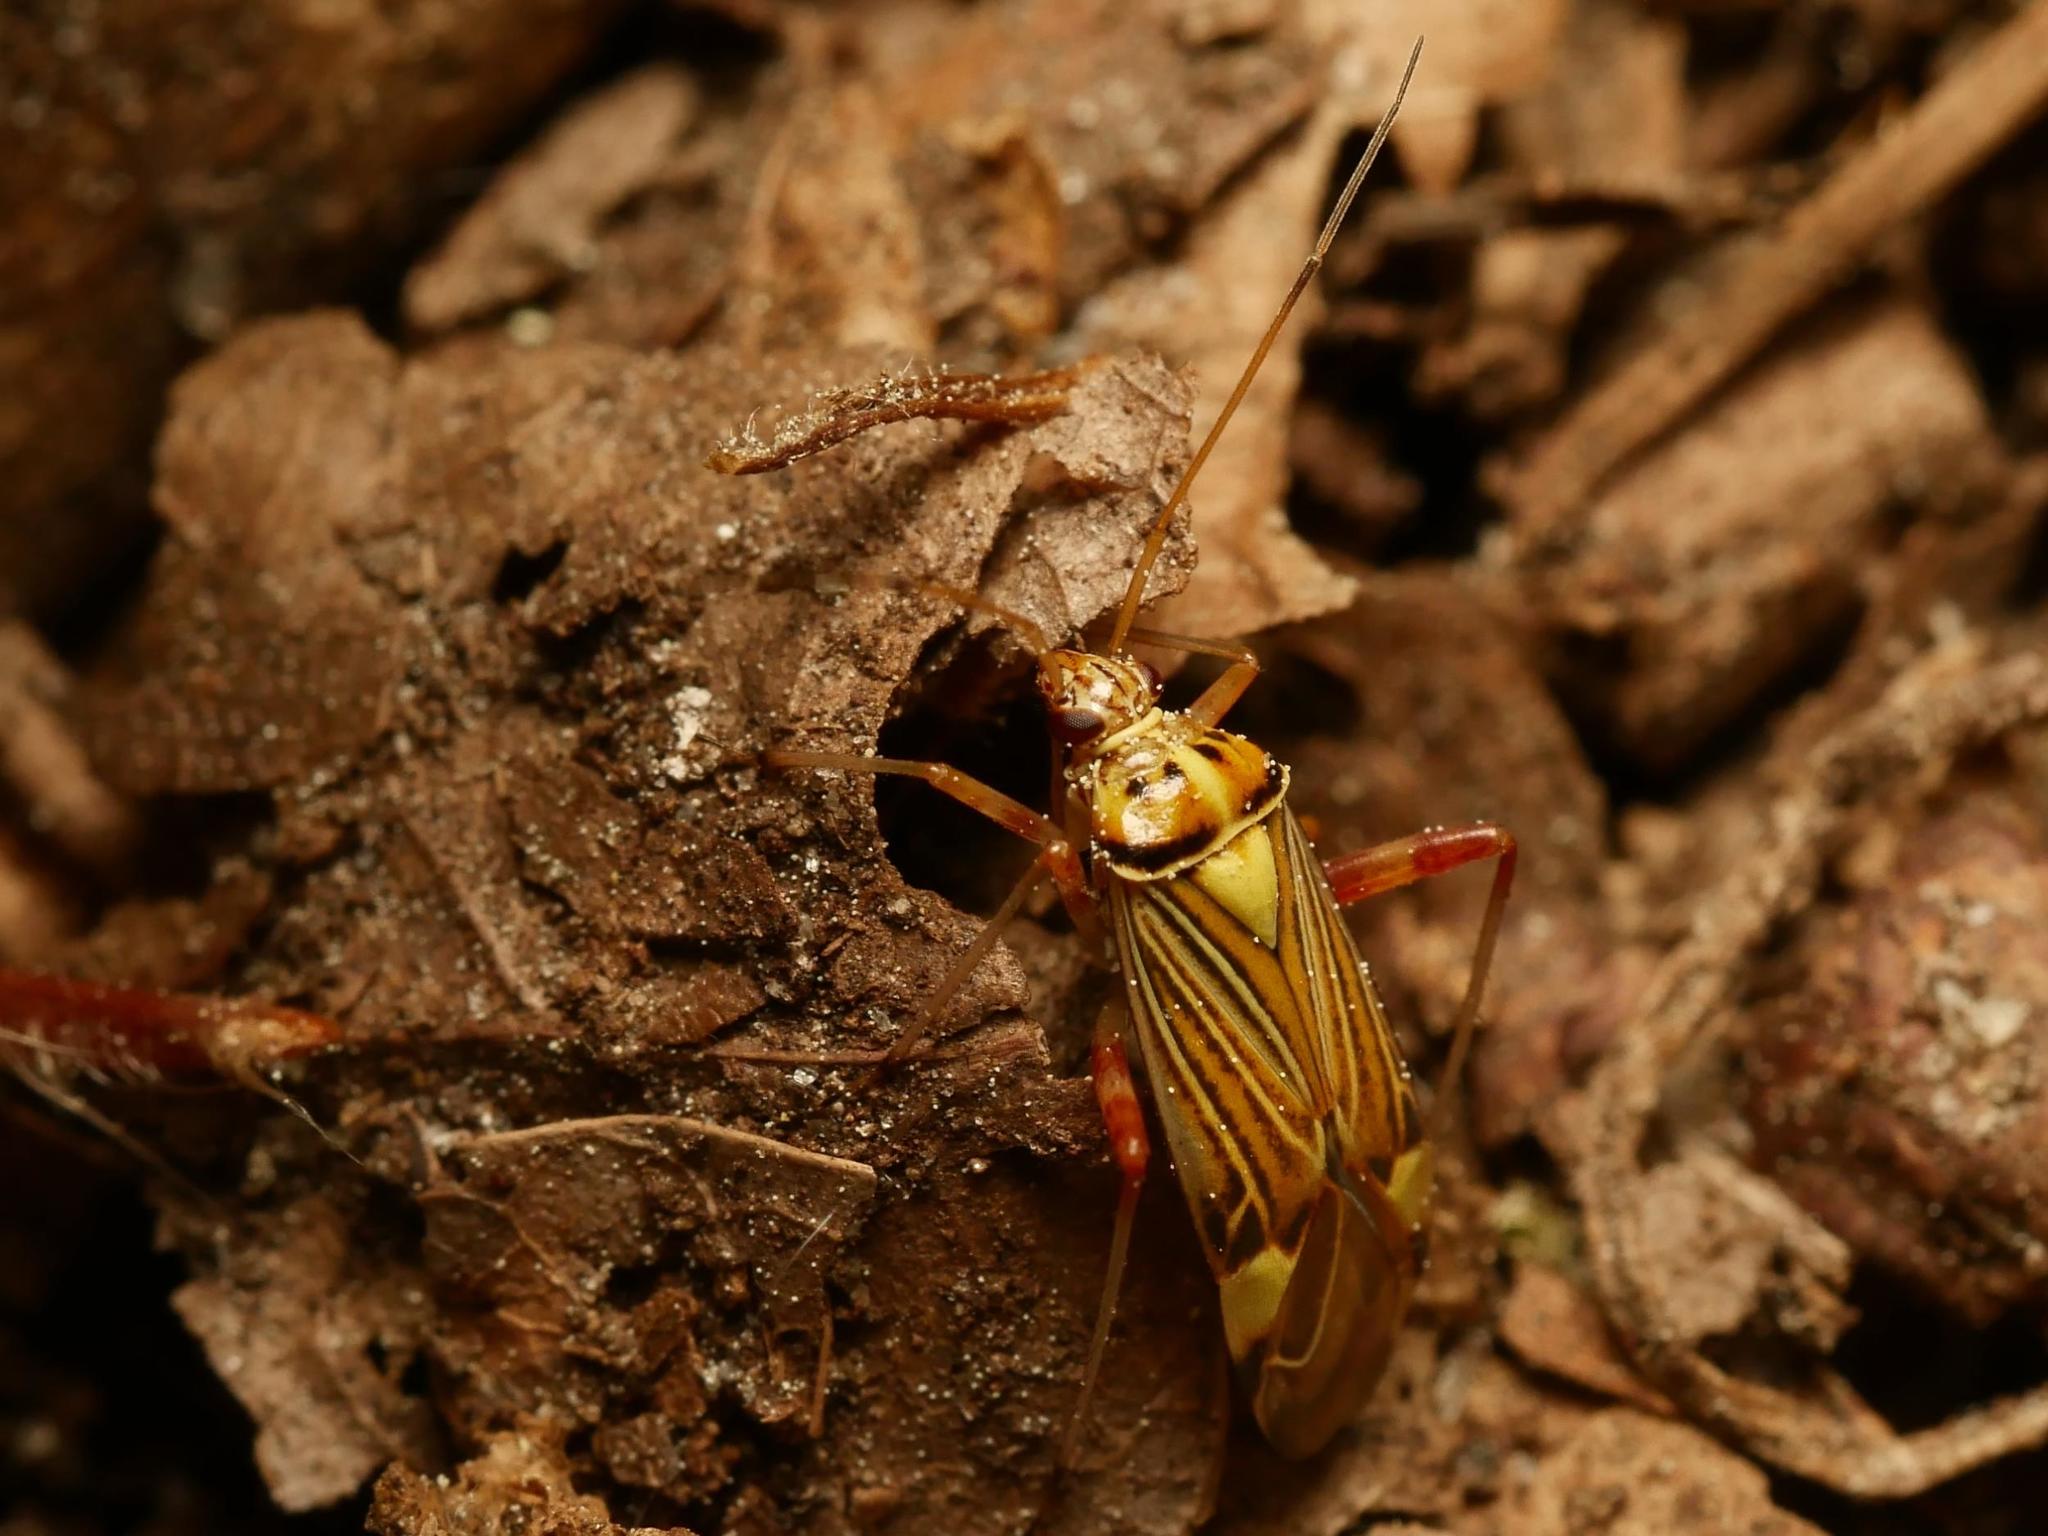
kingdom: Animalia
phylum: Arthropoda
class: Insecta
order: Hemiptera
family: Miridae
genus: Rhabdomiris
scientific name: Rhabdomiris striatellus
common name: Plant bug
